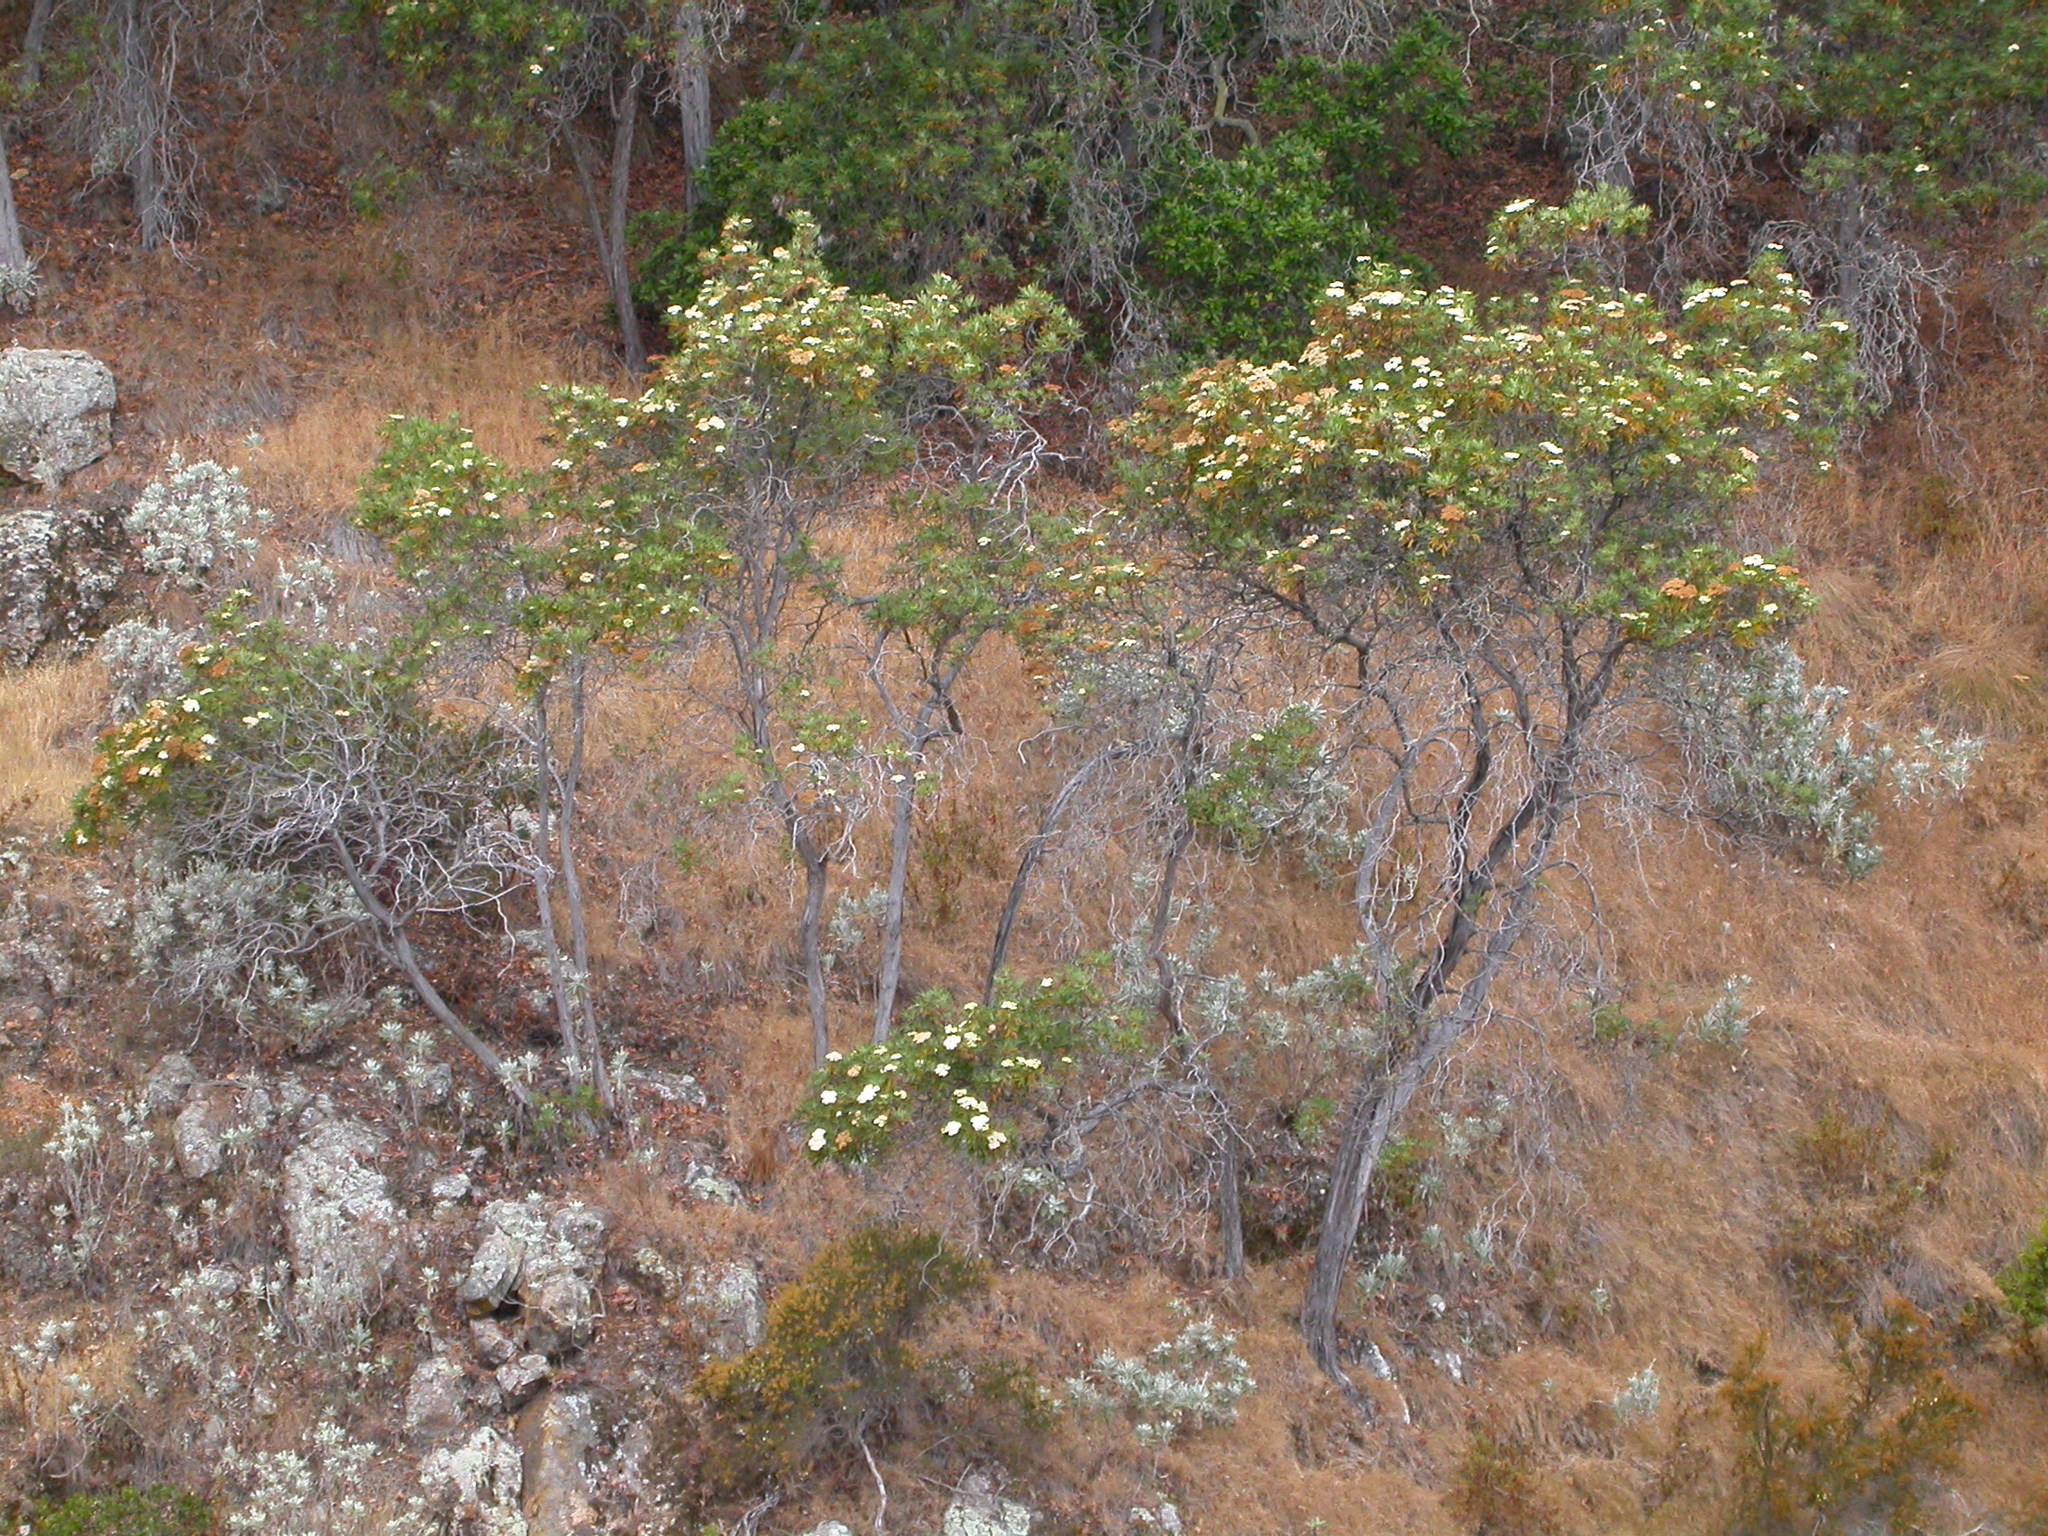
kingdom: Plantae
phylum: Tracheophyta
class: Magnoliopsida
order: Rosales
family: Rosaceae
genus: Lyonothamnus
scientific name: Lyonothamnus floribundus
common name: Catalina ironwood
